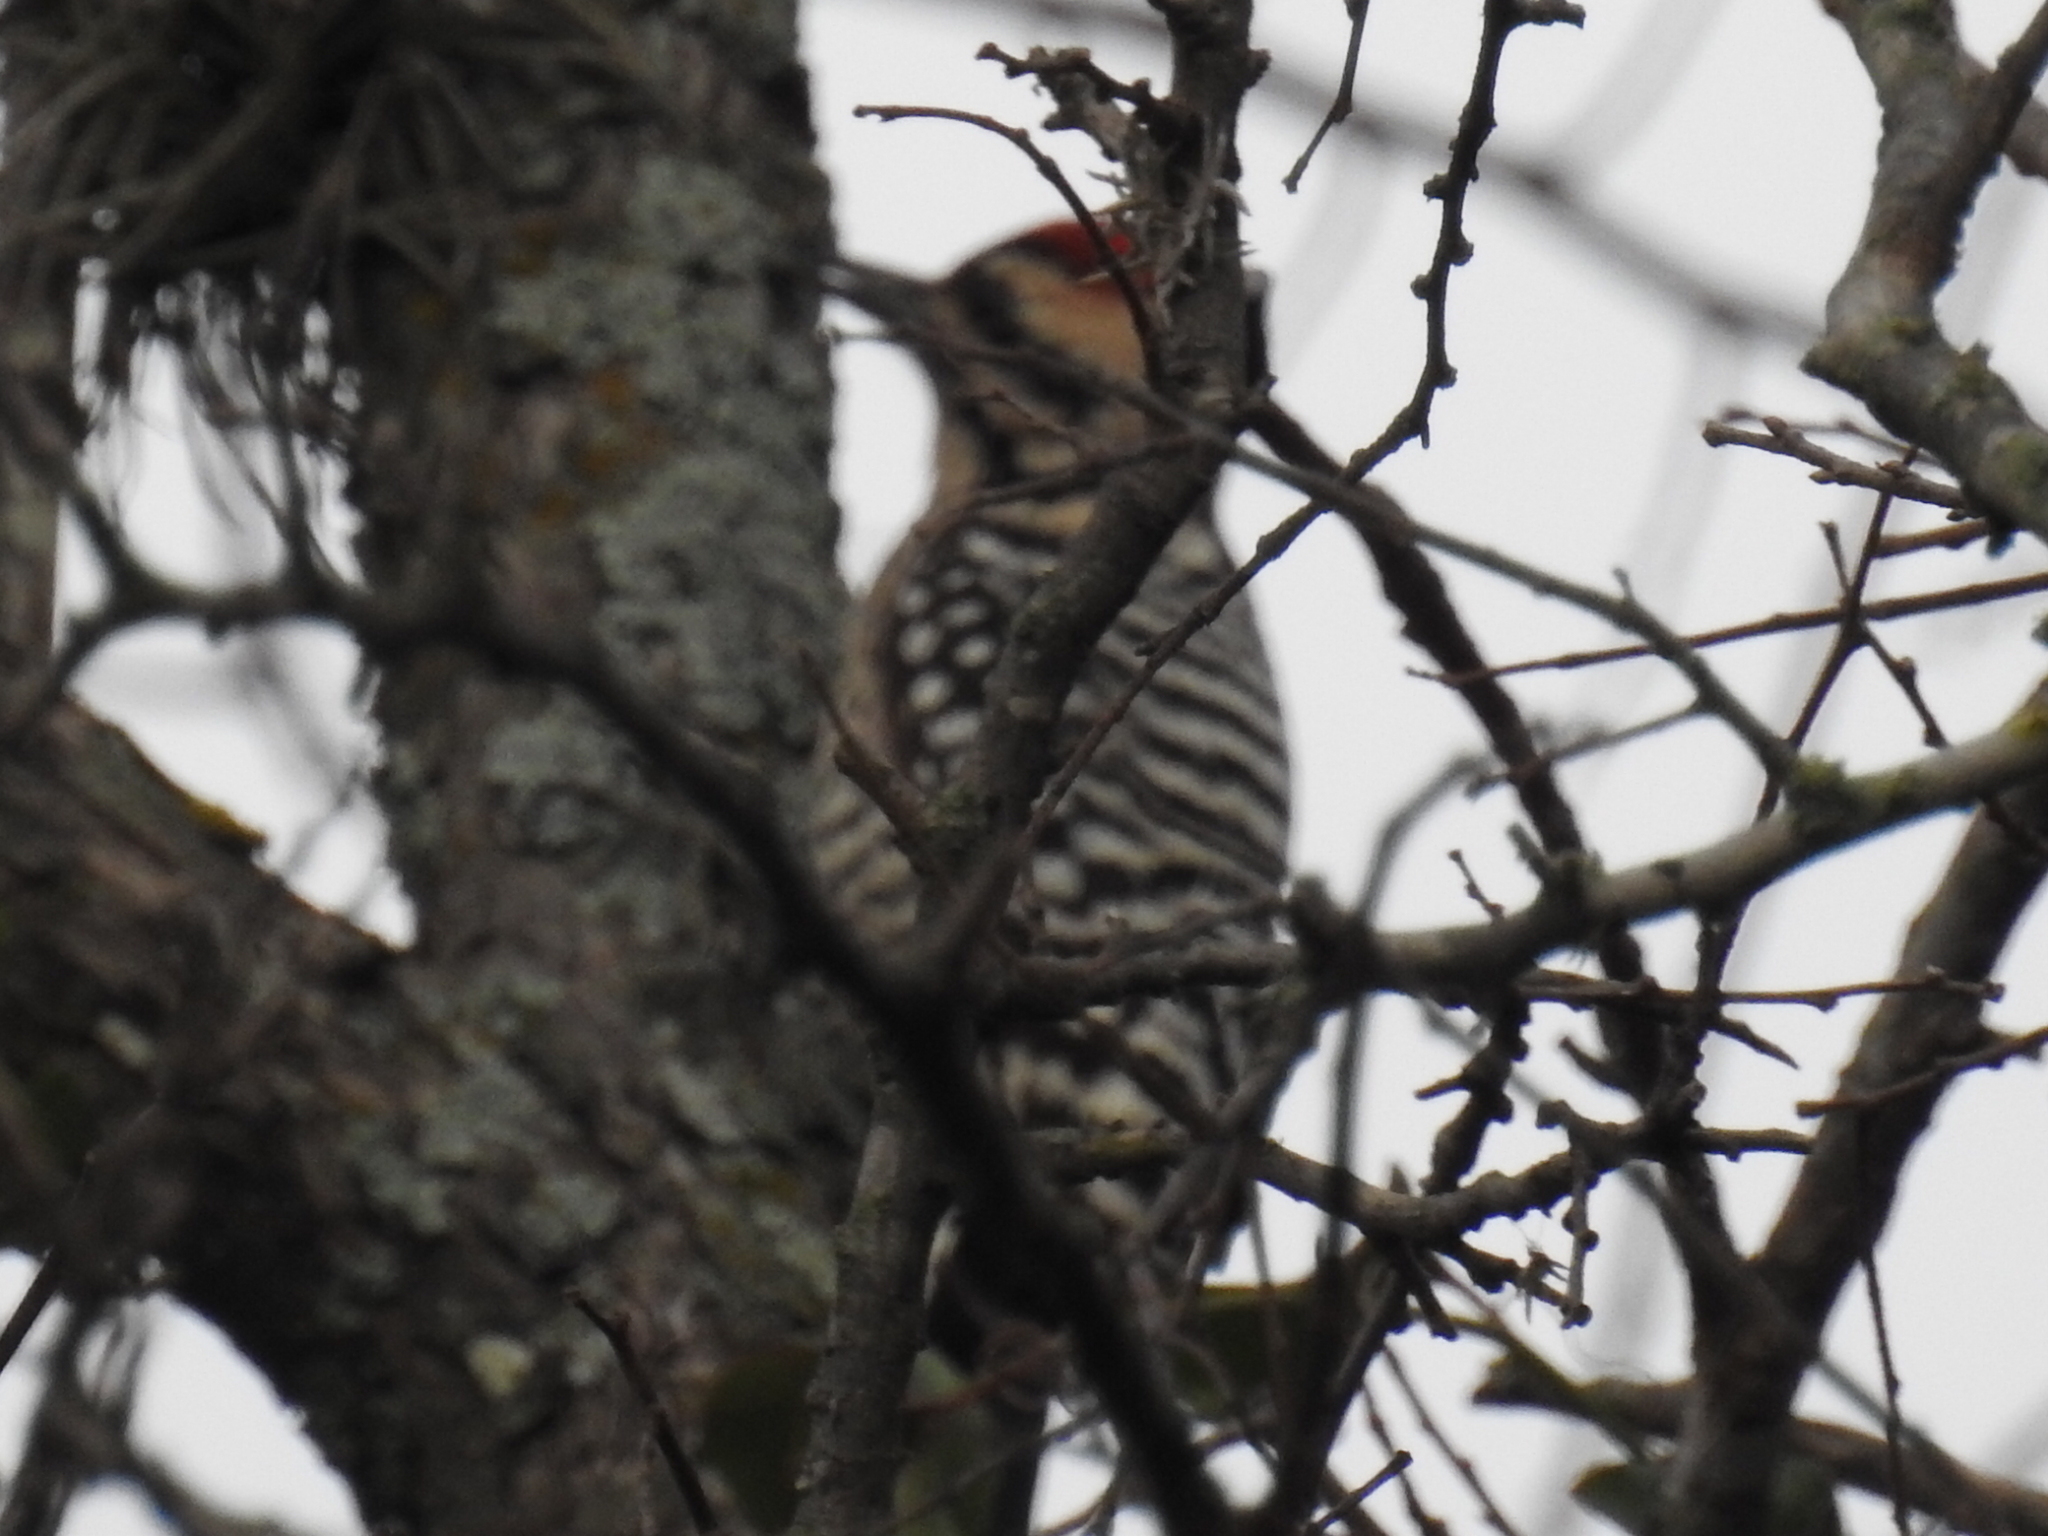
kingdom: Animalia
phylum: Chordata
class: Aves
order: Piciformes
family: Picidae
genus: Dryobates
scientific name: Dryobates scalaris
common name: Ladder-backed woodpecker
